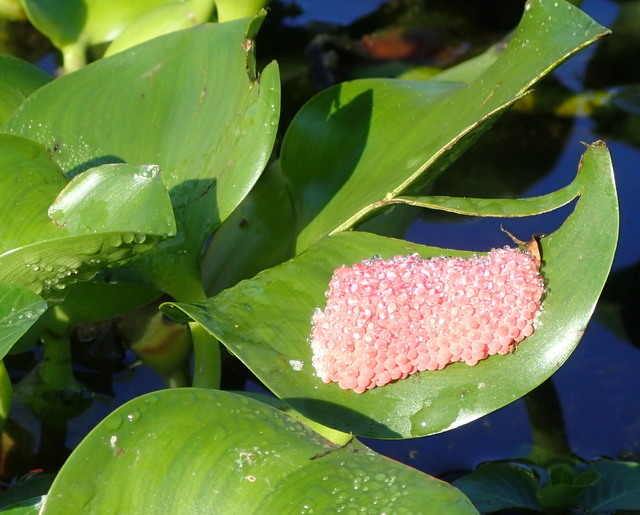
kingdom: Animalia
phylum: Mollusca
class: Gastropoda
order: Architaenioglossa
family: Ampullariidae
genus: Pomacea
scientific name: Pomacea maculata
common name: Giant applesnail
